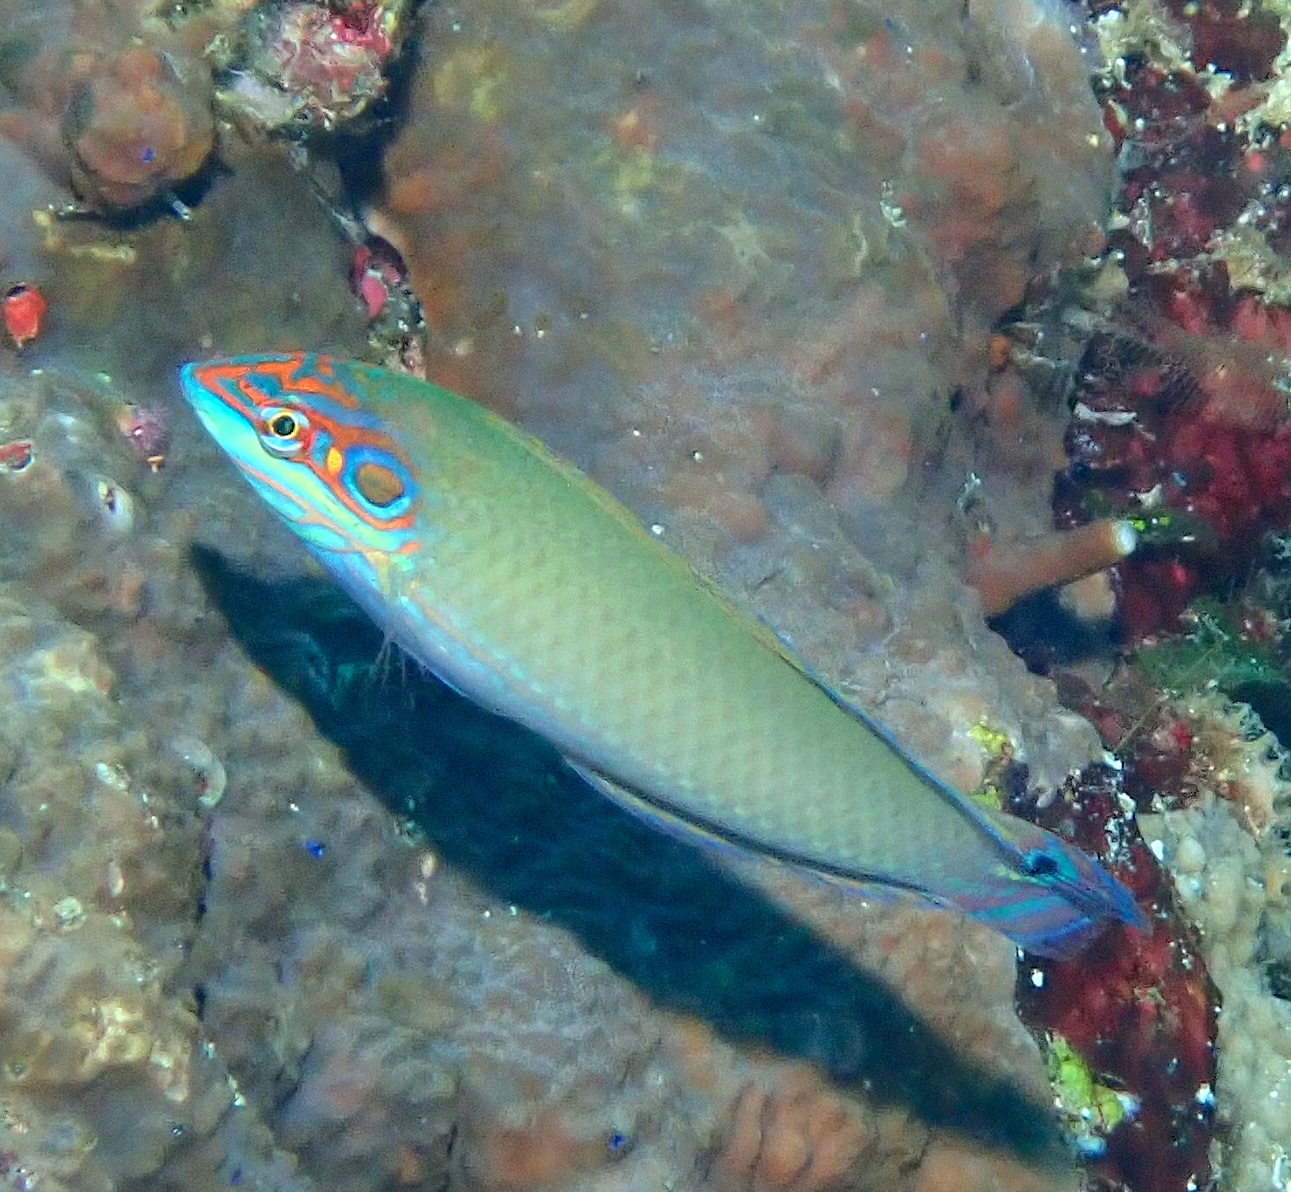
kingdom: Animalia
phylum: Chordata
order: Perciformes
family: Labridae
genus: Halichoeres
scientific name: Halichoeres melasmapomus
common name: Black-ear wrasse
